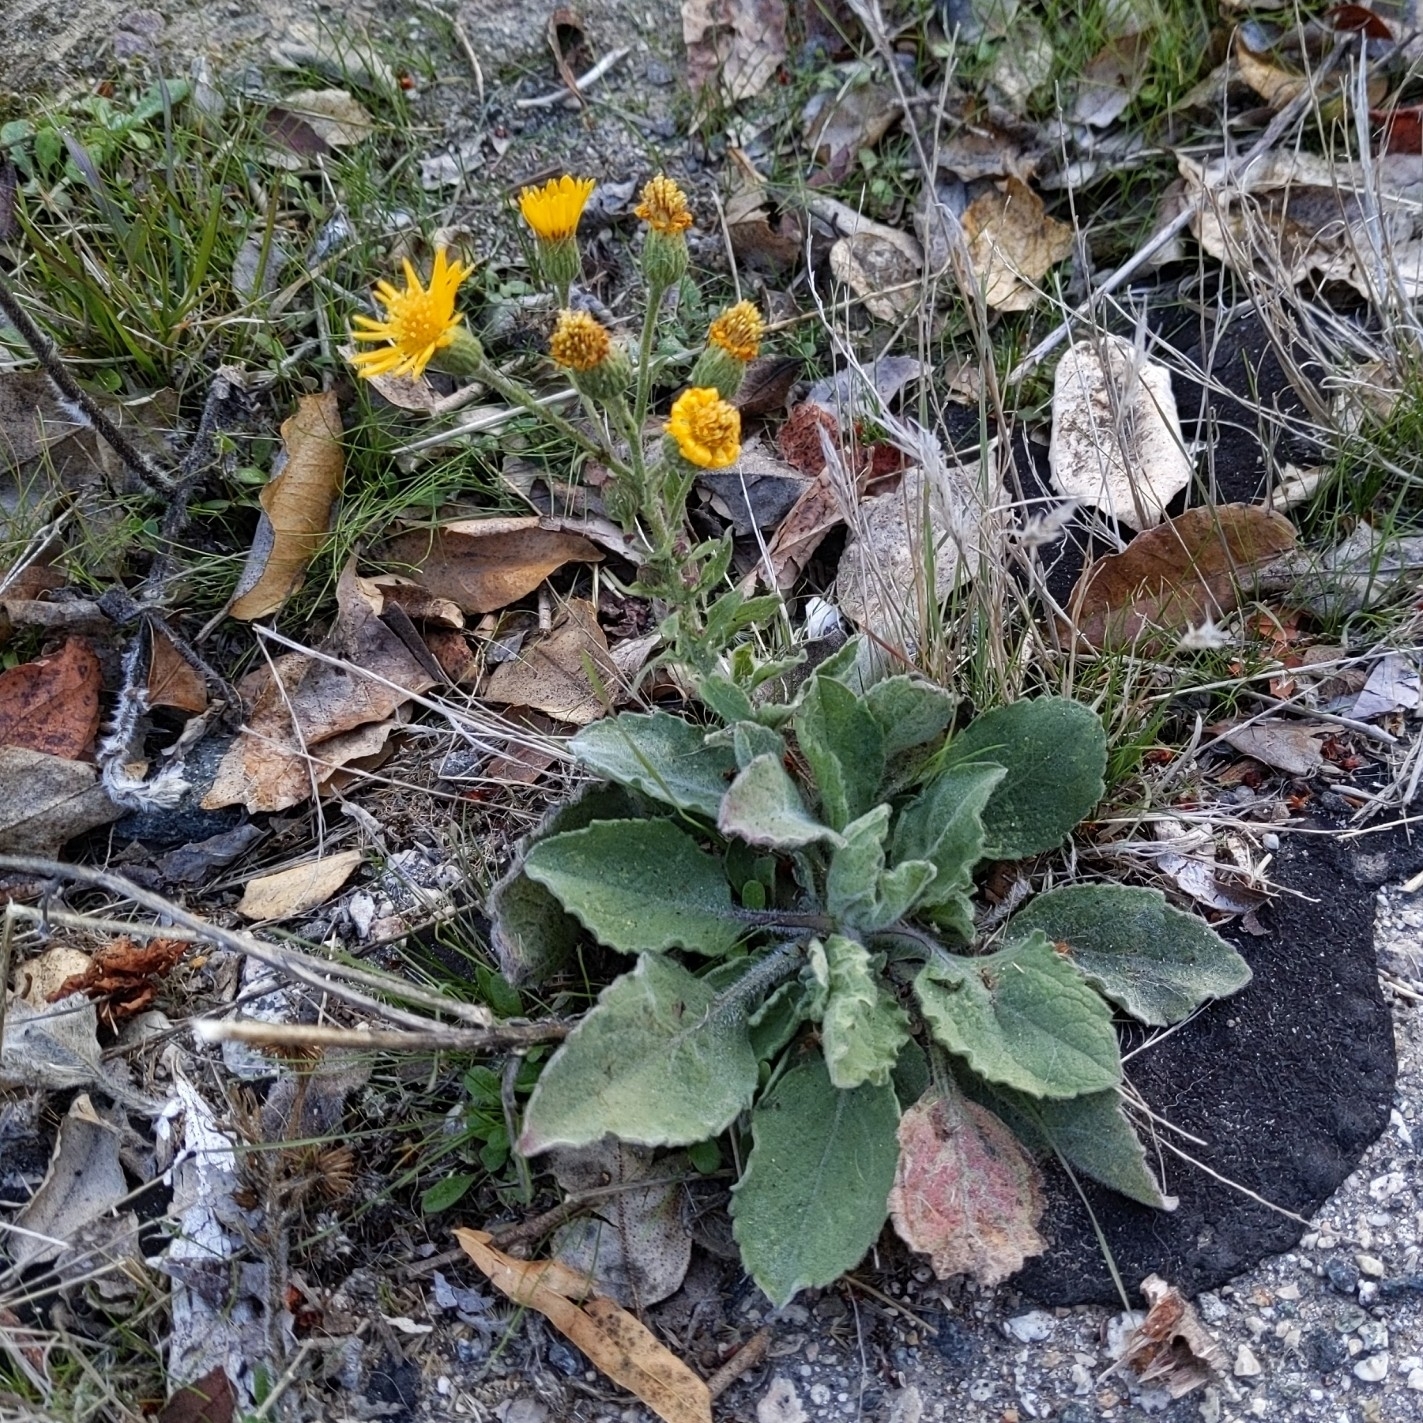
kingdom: Plantae
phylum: Tracheophyta
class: Magnoliopsida
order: Asterales
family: Asteraceae
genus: Heterotheca
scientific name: Heterotheca grandiflora
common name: Telegraphweed
